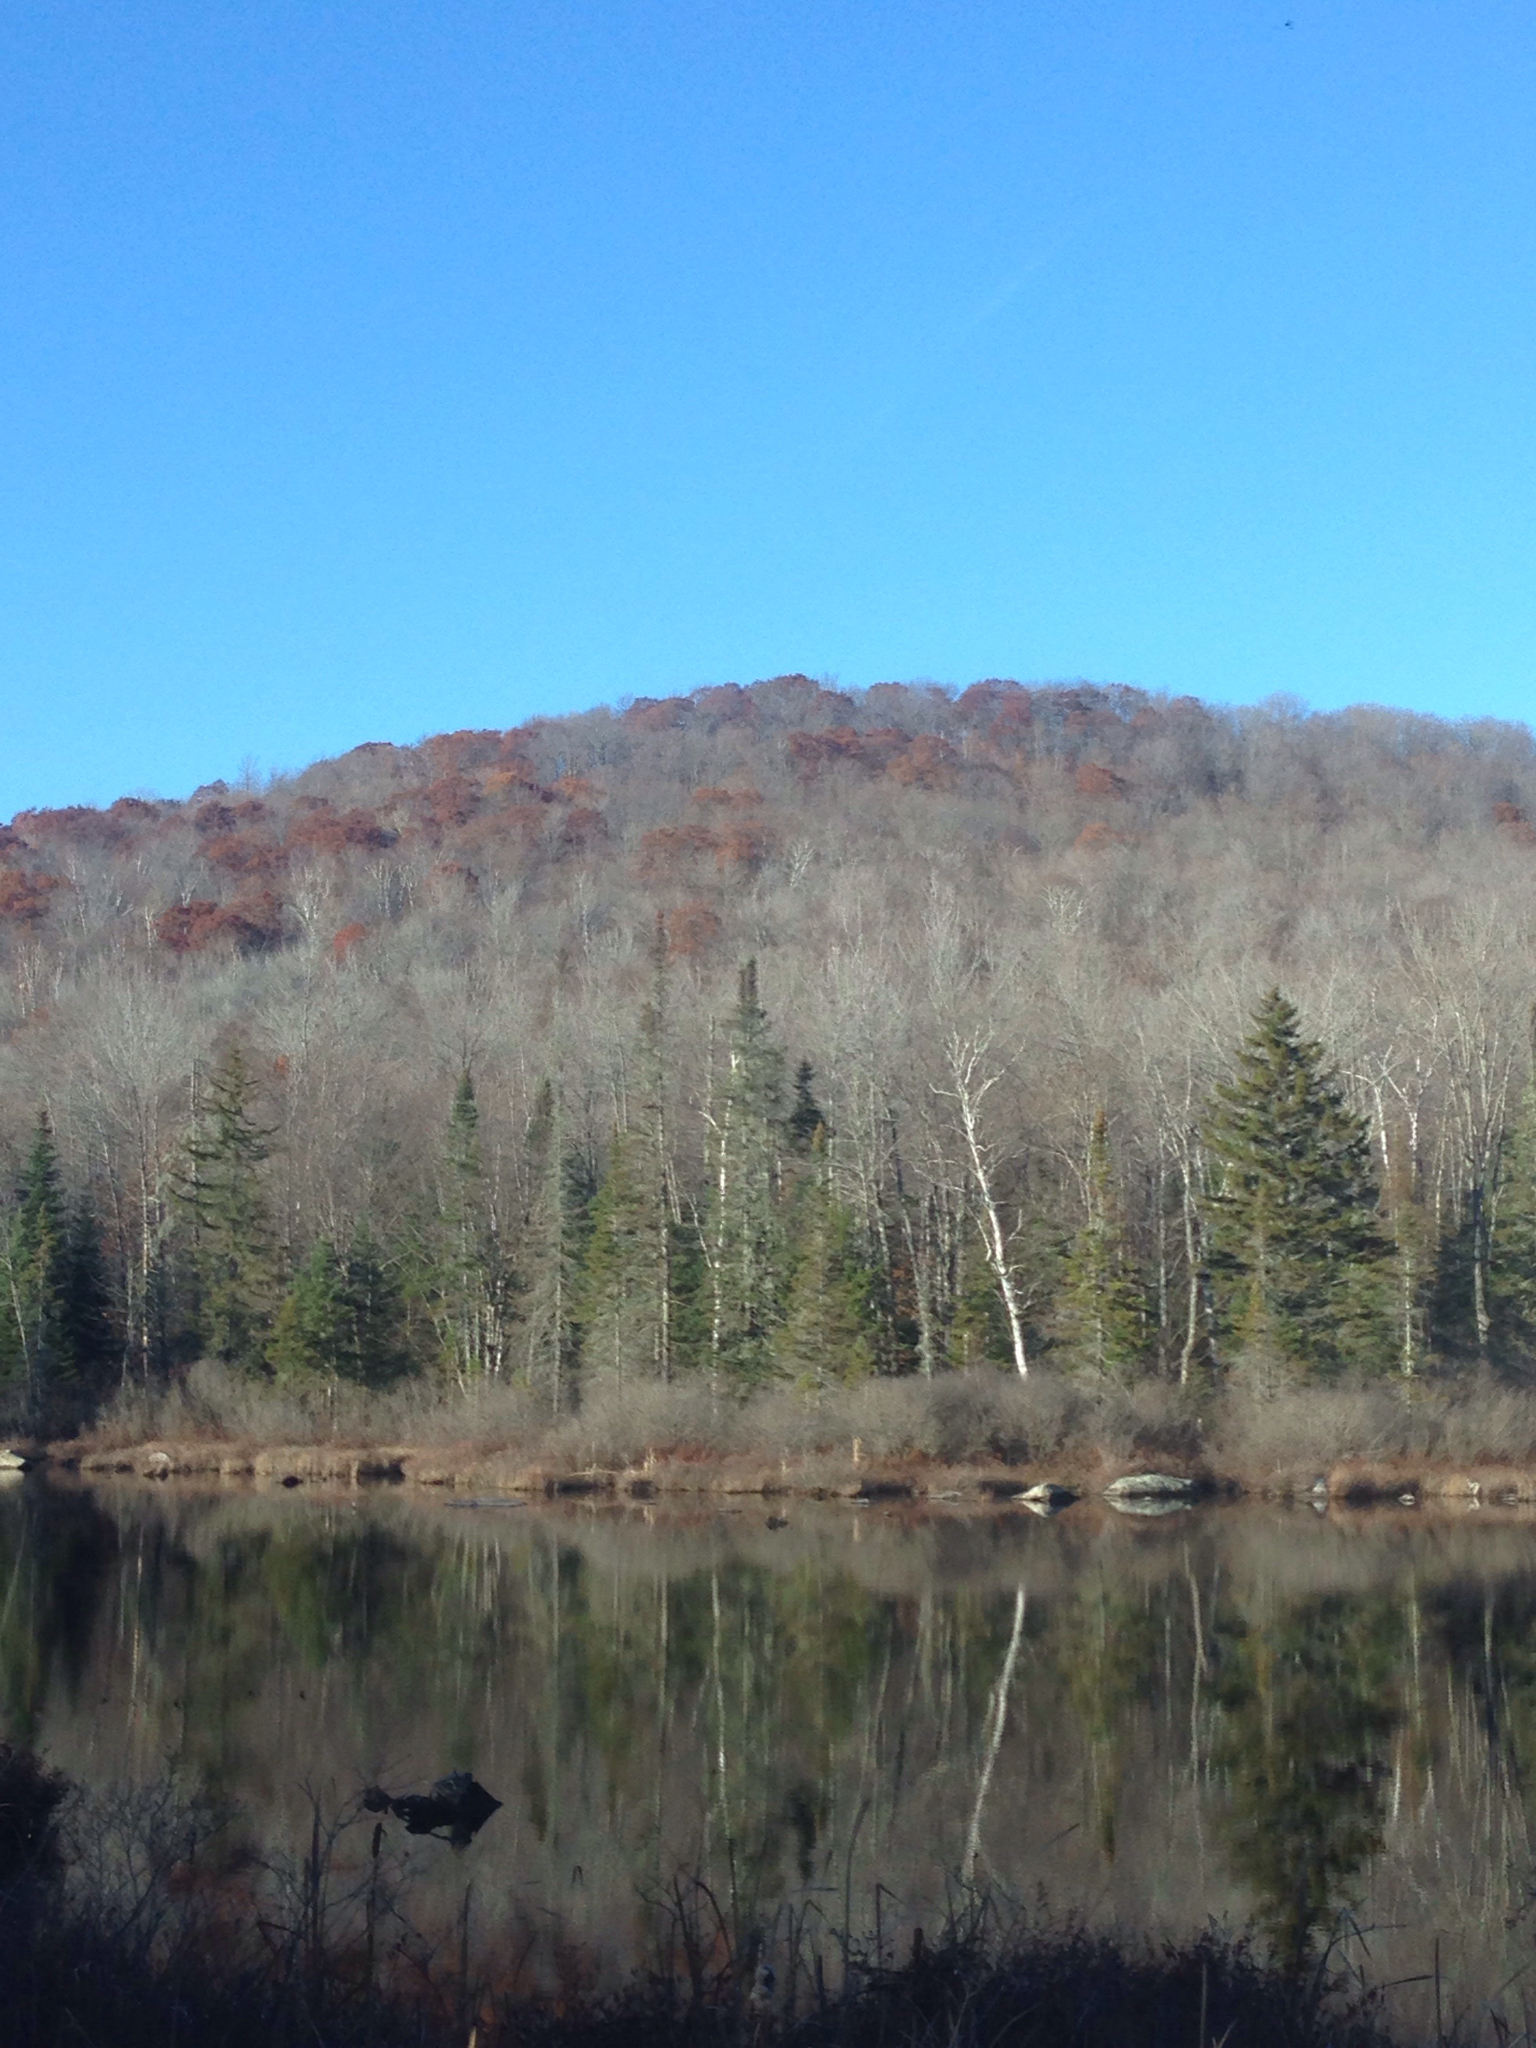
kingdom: Plantae
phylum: Tracheophyta
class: Magnoliopsida
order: Fagales
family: Fagaceae
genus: Quercus
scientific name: Quercus rubra
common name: Red oak
